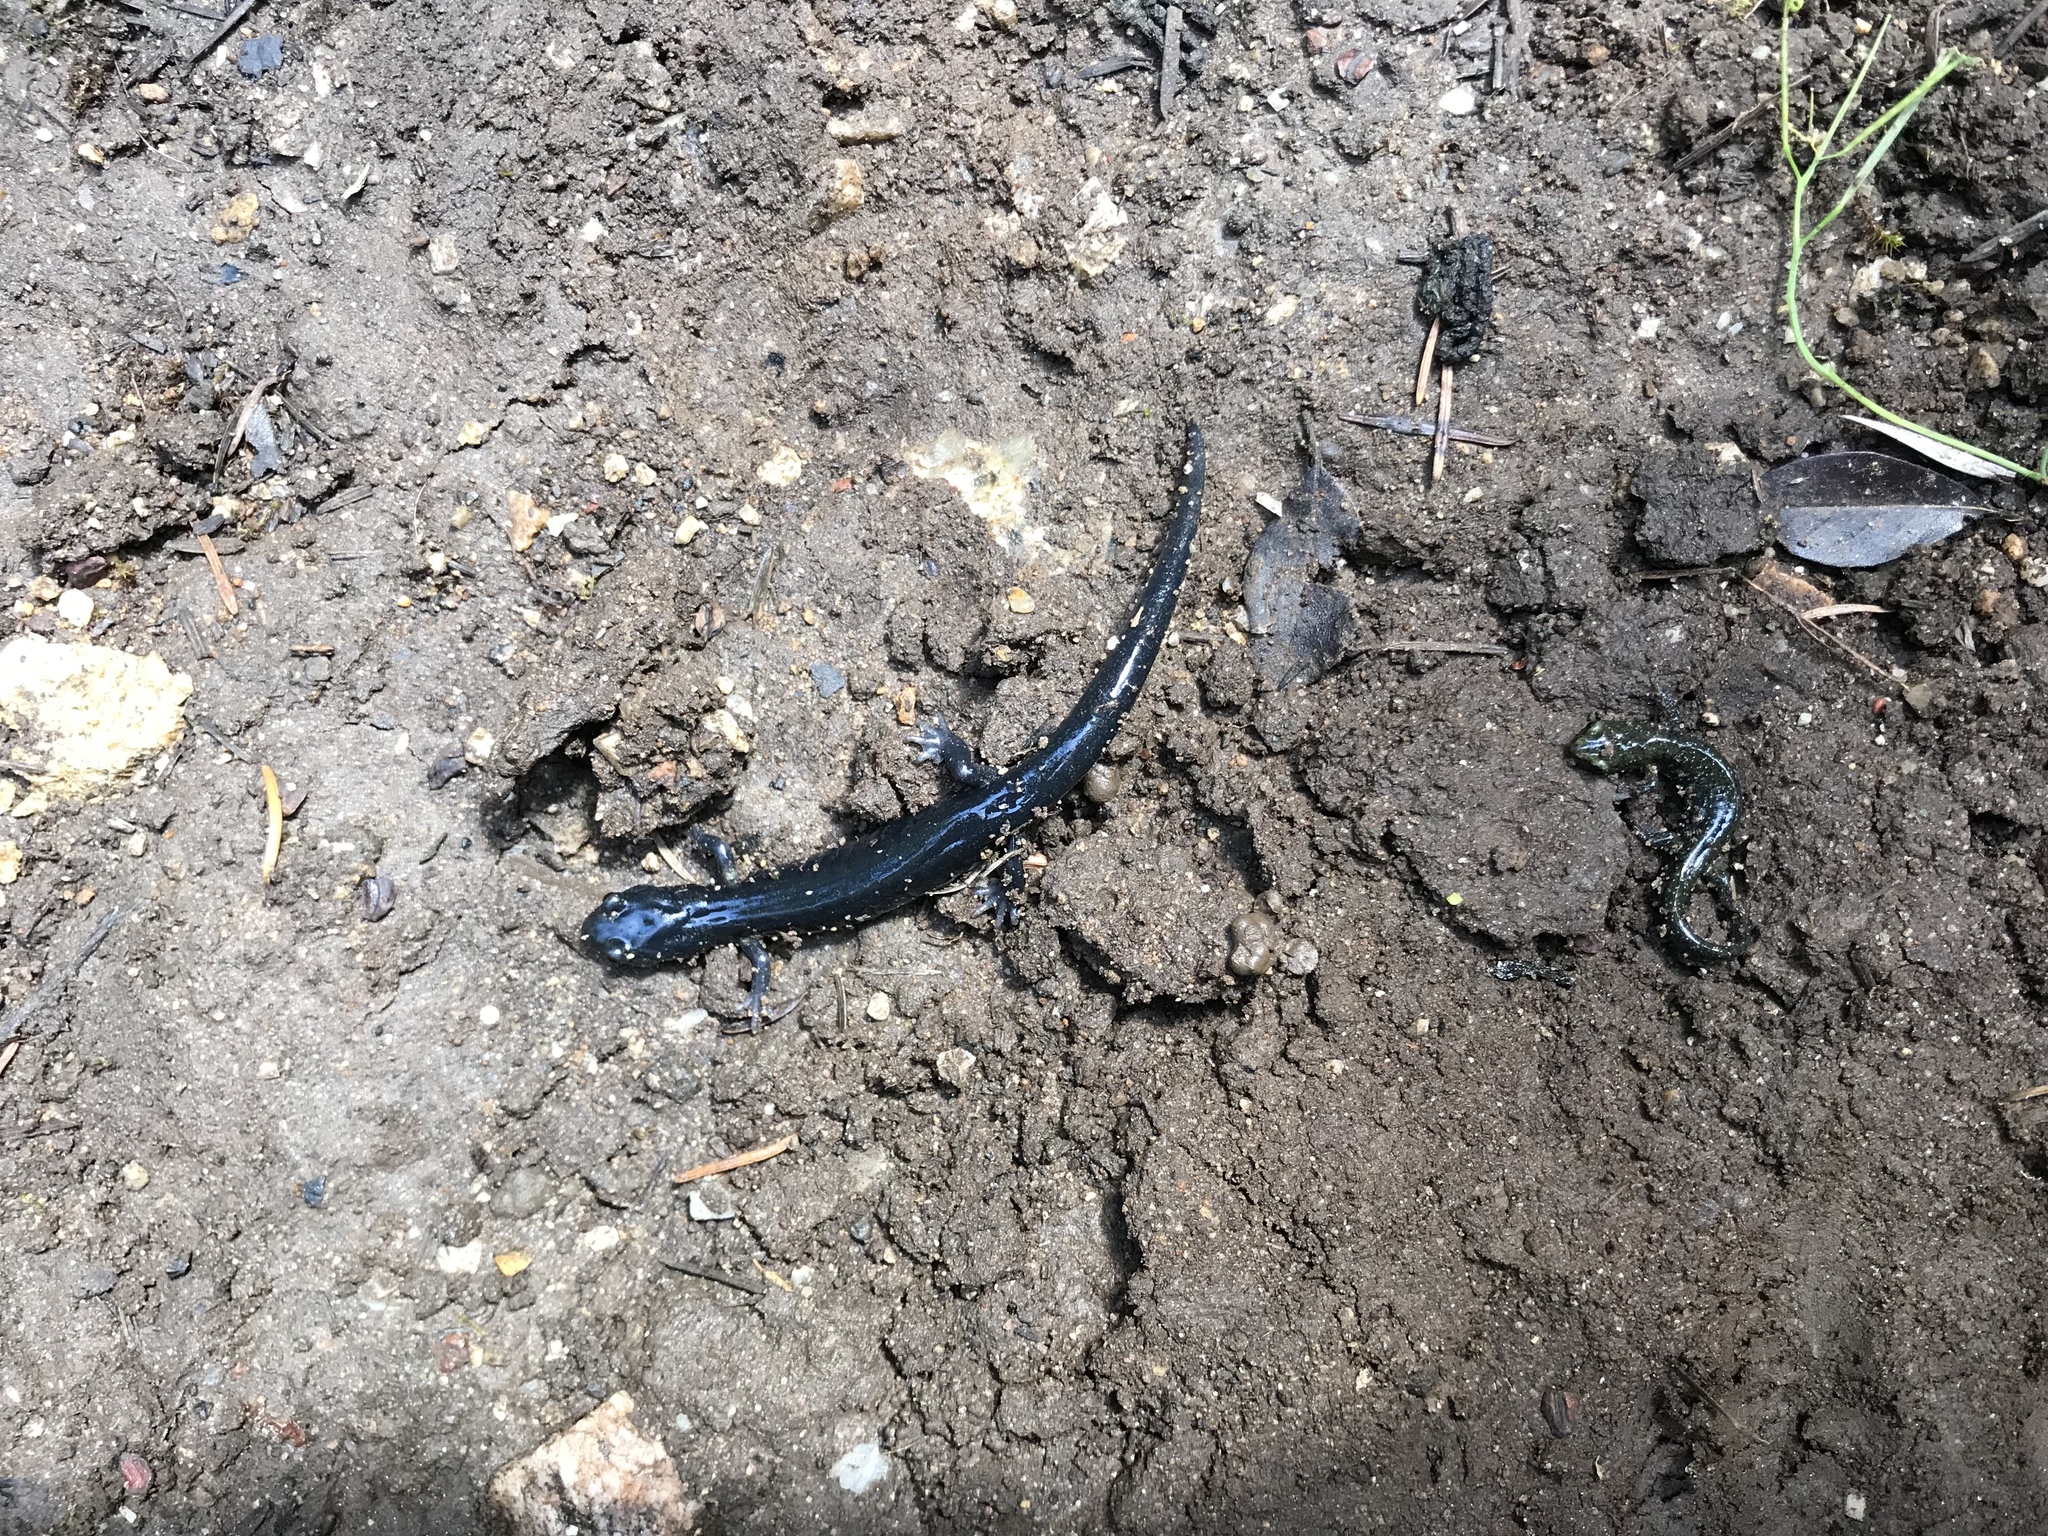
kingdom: Animalia
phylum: Chordata
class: Amphibia
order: Caudata
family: Plethodontidae
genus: Aneides
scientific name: Aneides niger
